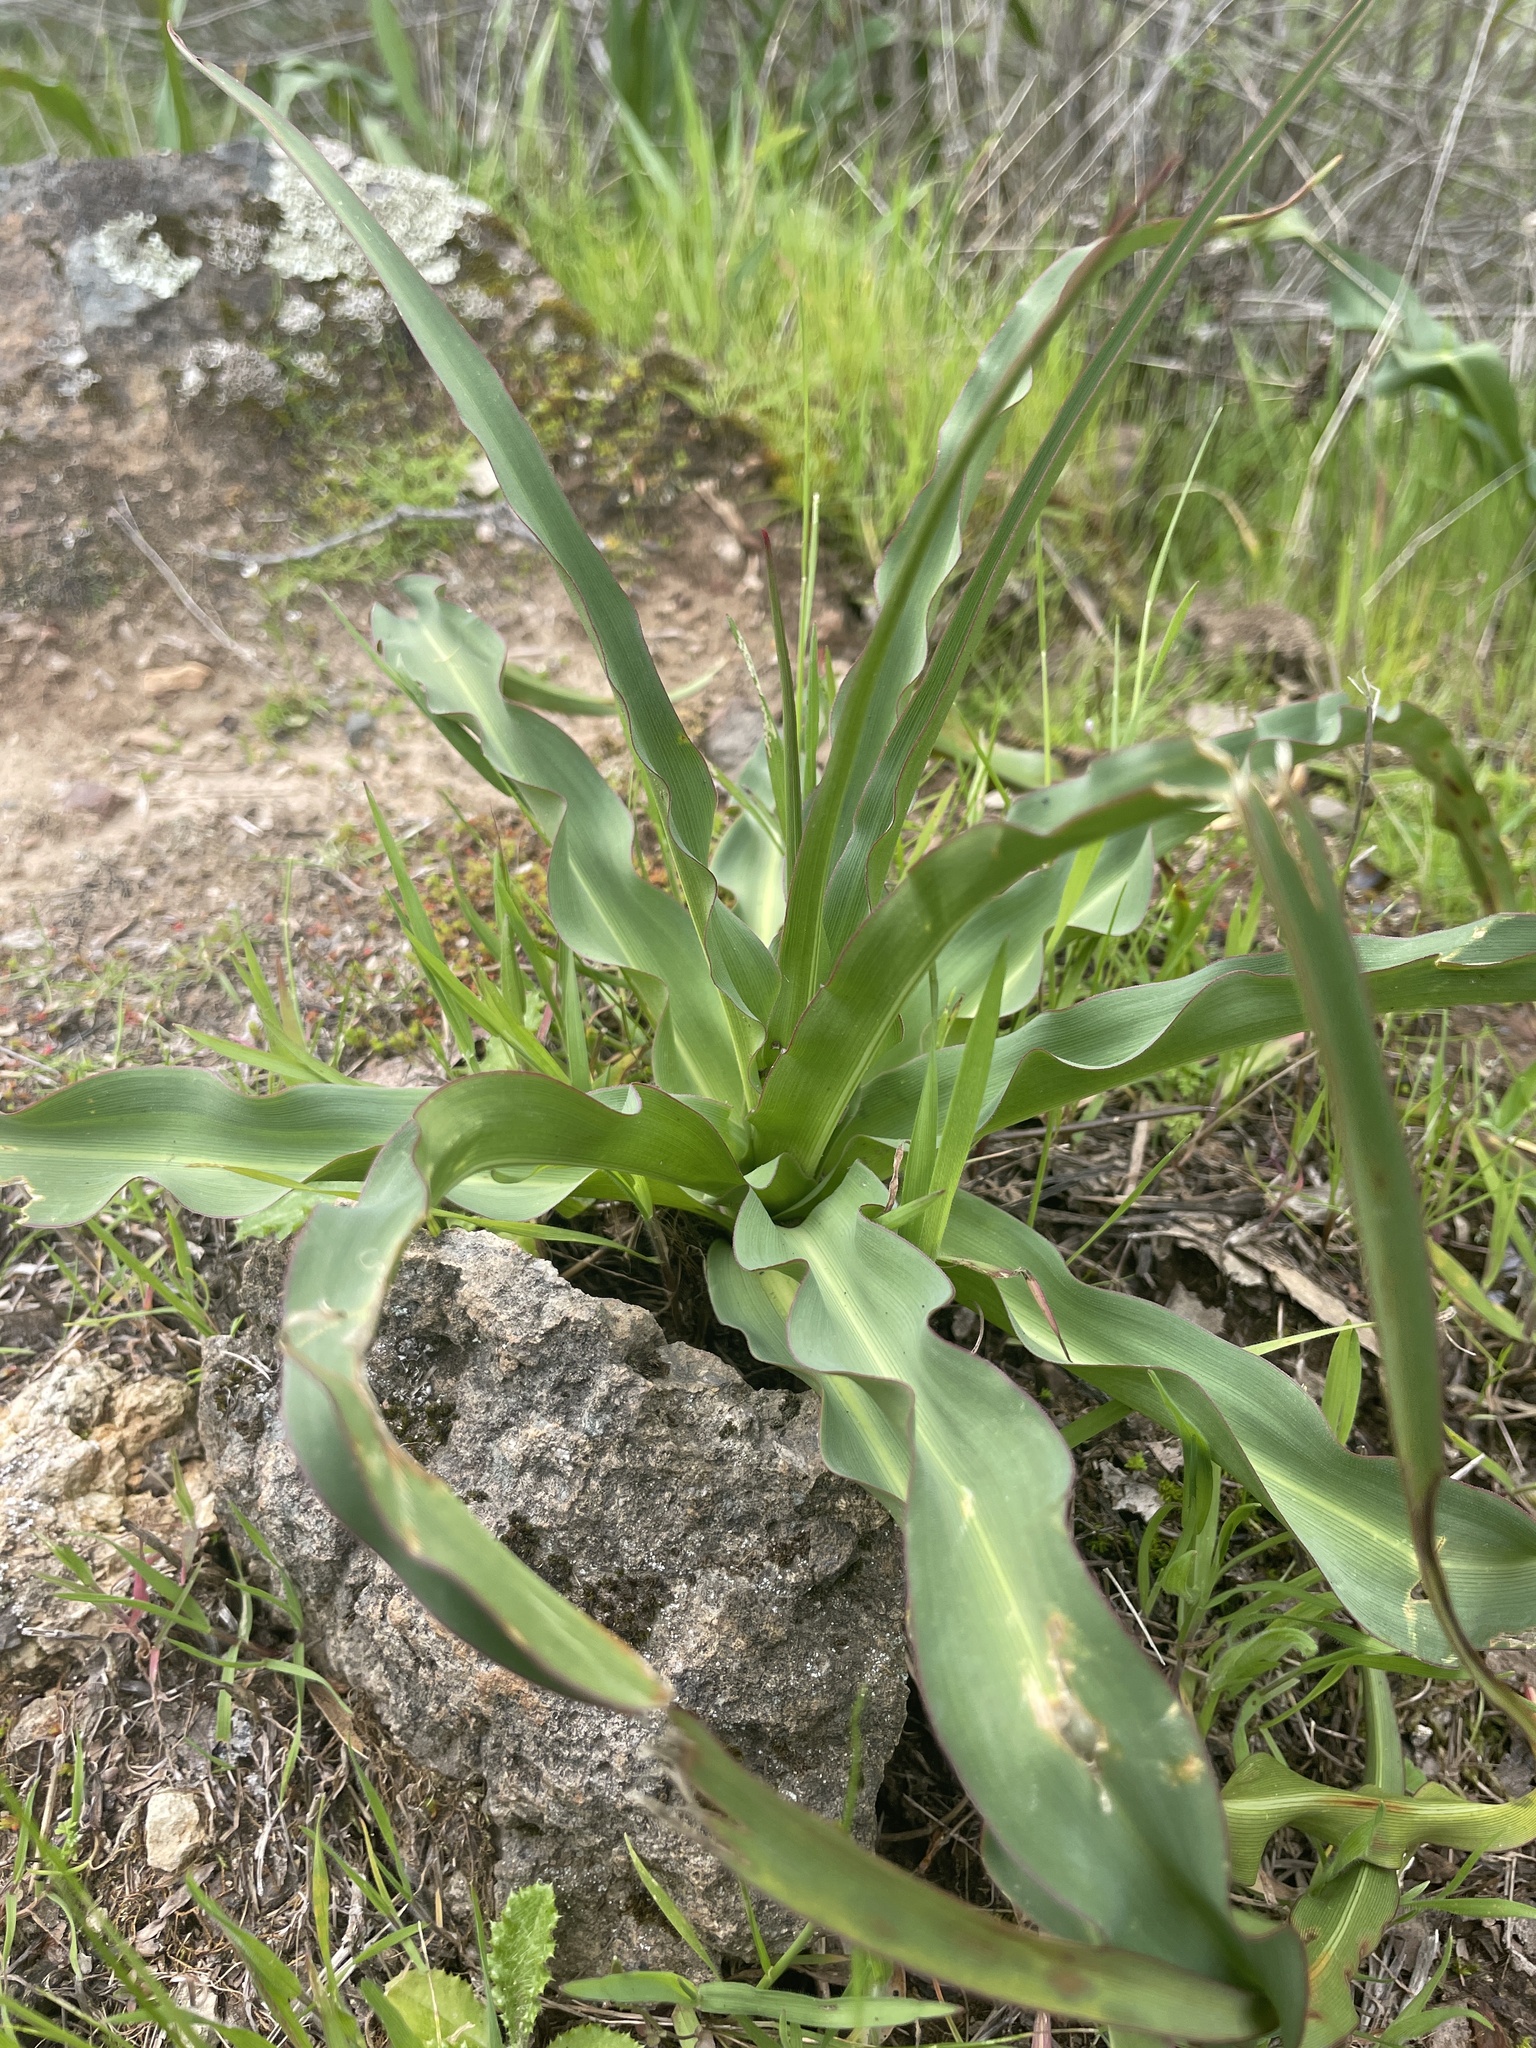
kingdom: Plantae
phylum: Tracheophyta
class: Liliopsida
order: Asparagales
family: Asparagaceae
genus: Chlorogalum
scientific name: Chlorogalum pomeridianum
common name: Amole
